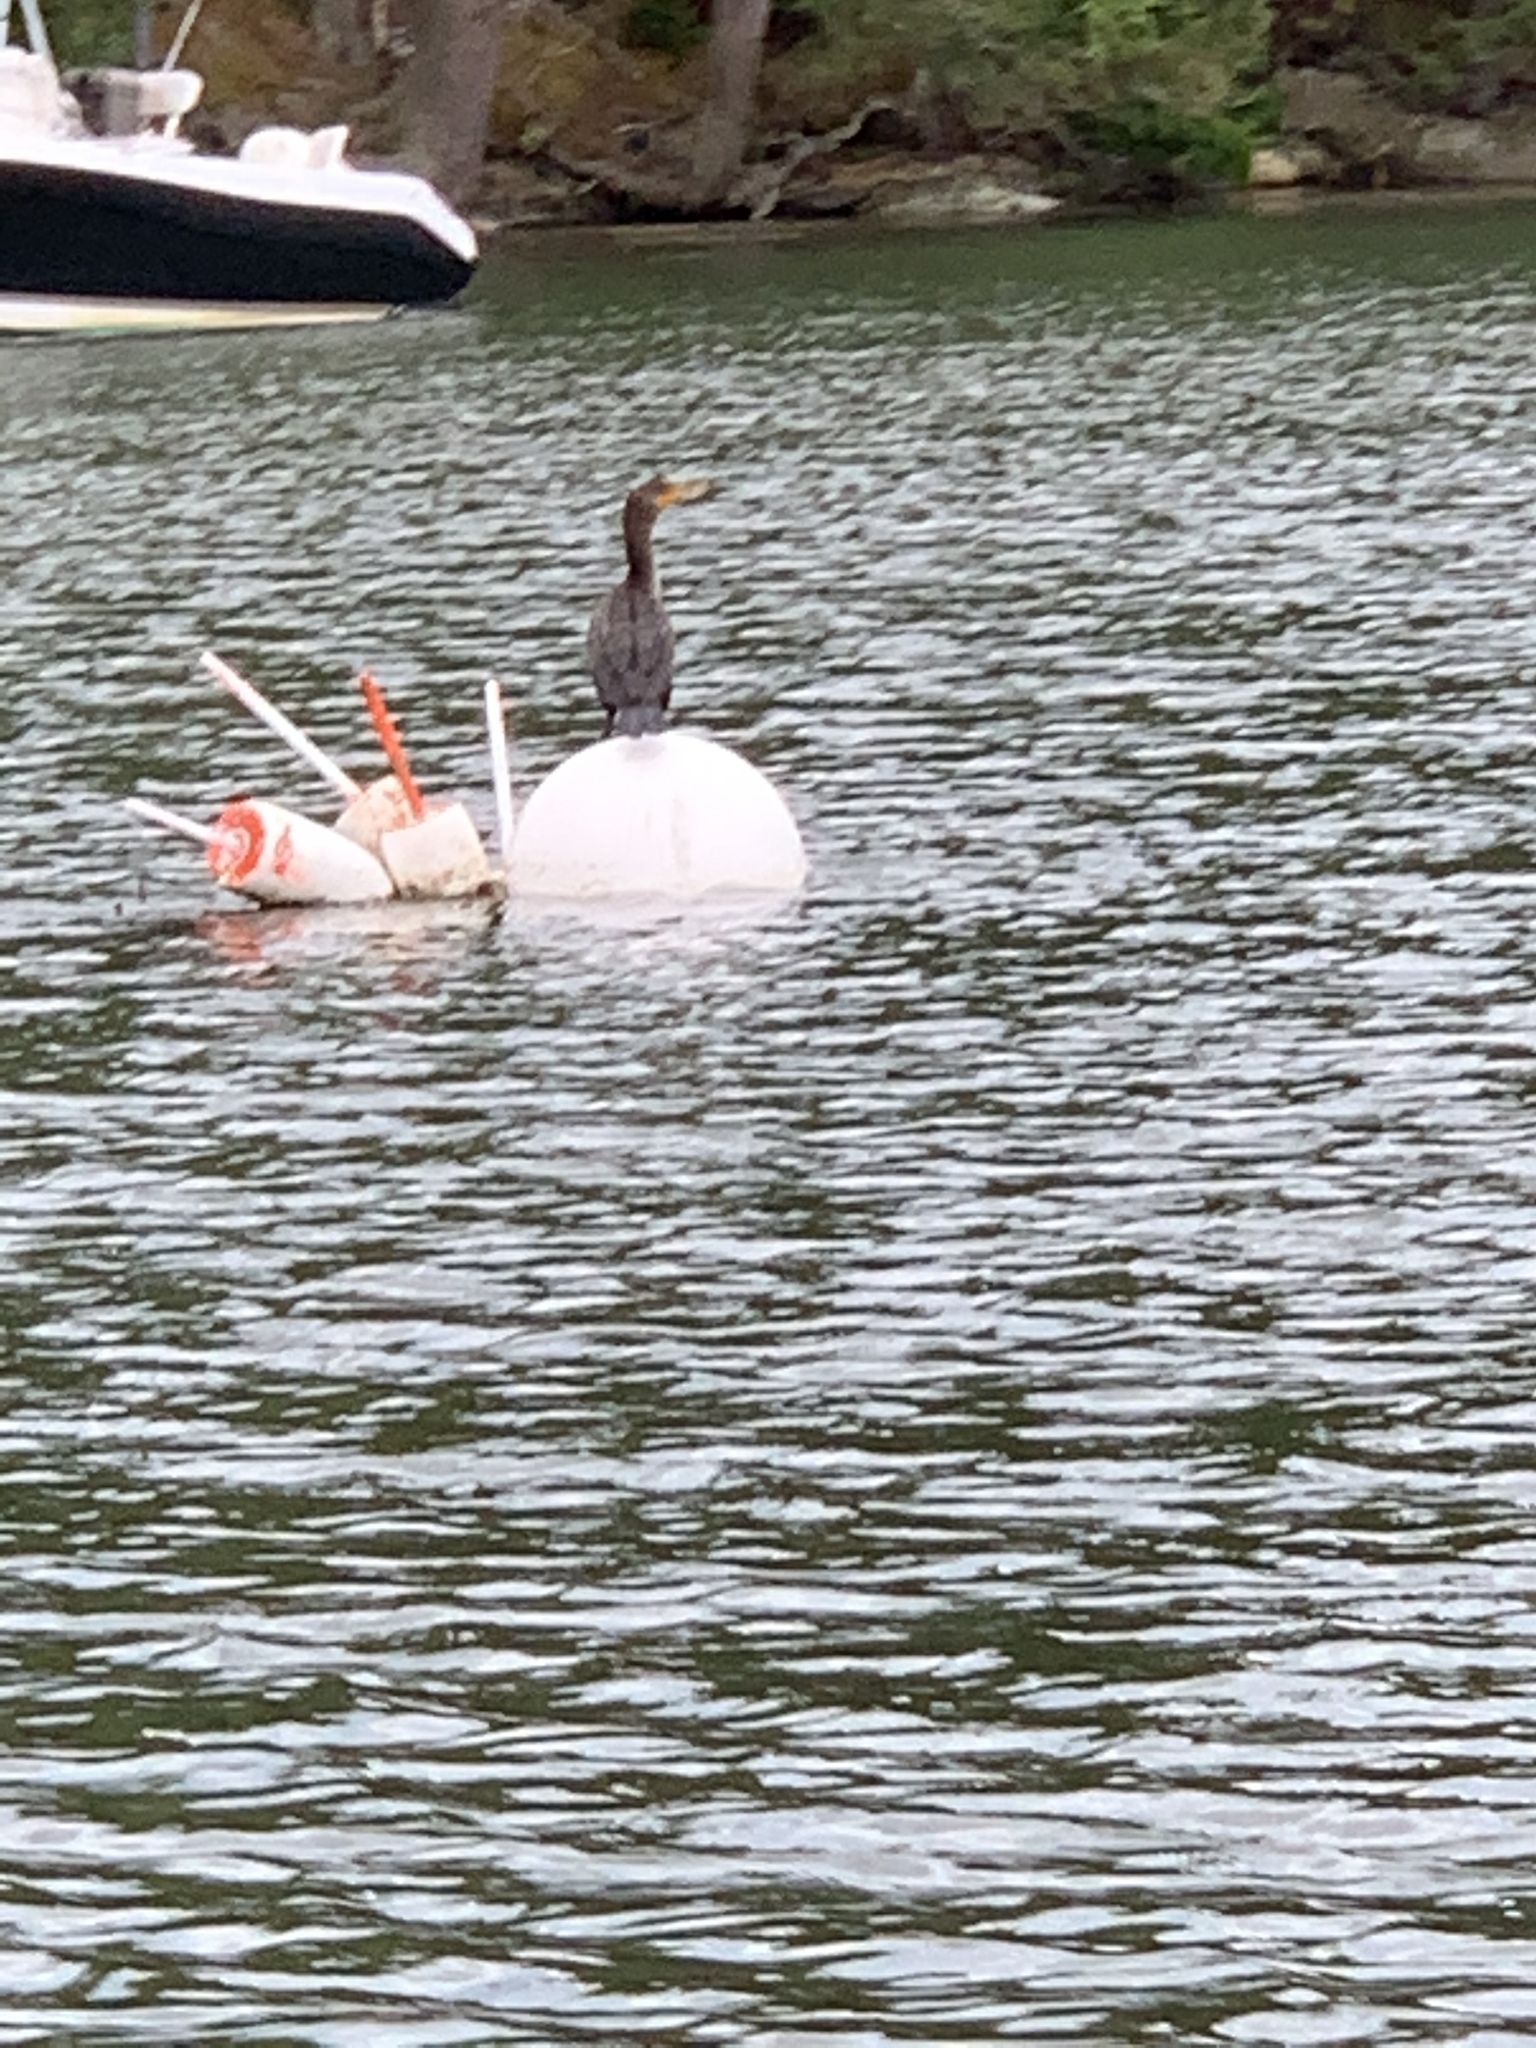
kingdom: Animalia
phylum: Chordata
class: Aves
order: Suliformes
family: Phalacrocoracidae
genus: Phalacrocorax
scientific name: Phalacrocorax auritus
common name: Double-crested cormorant
